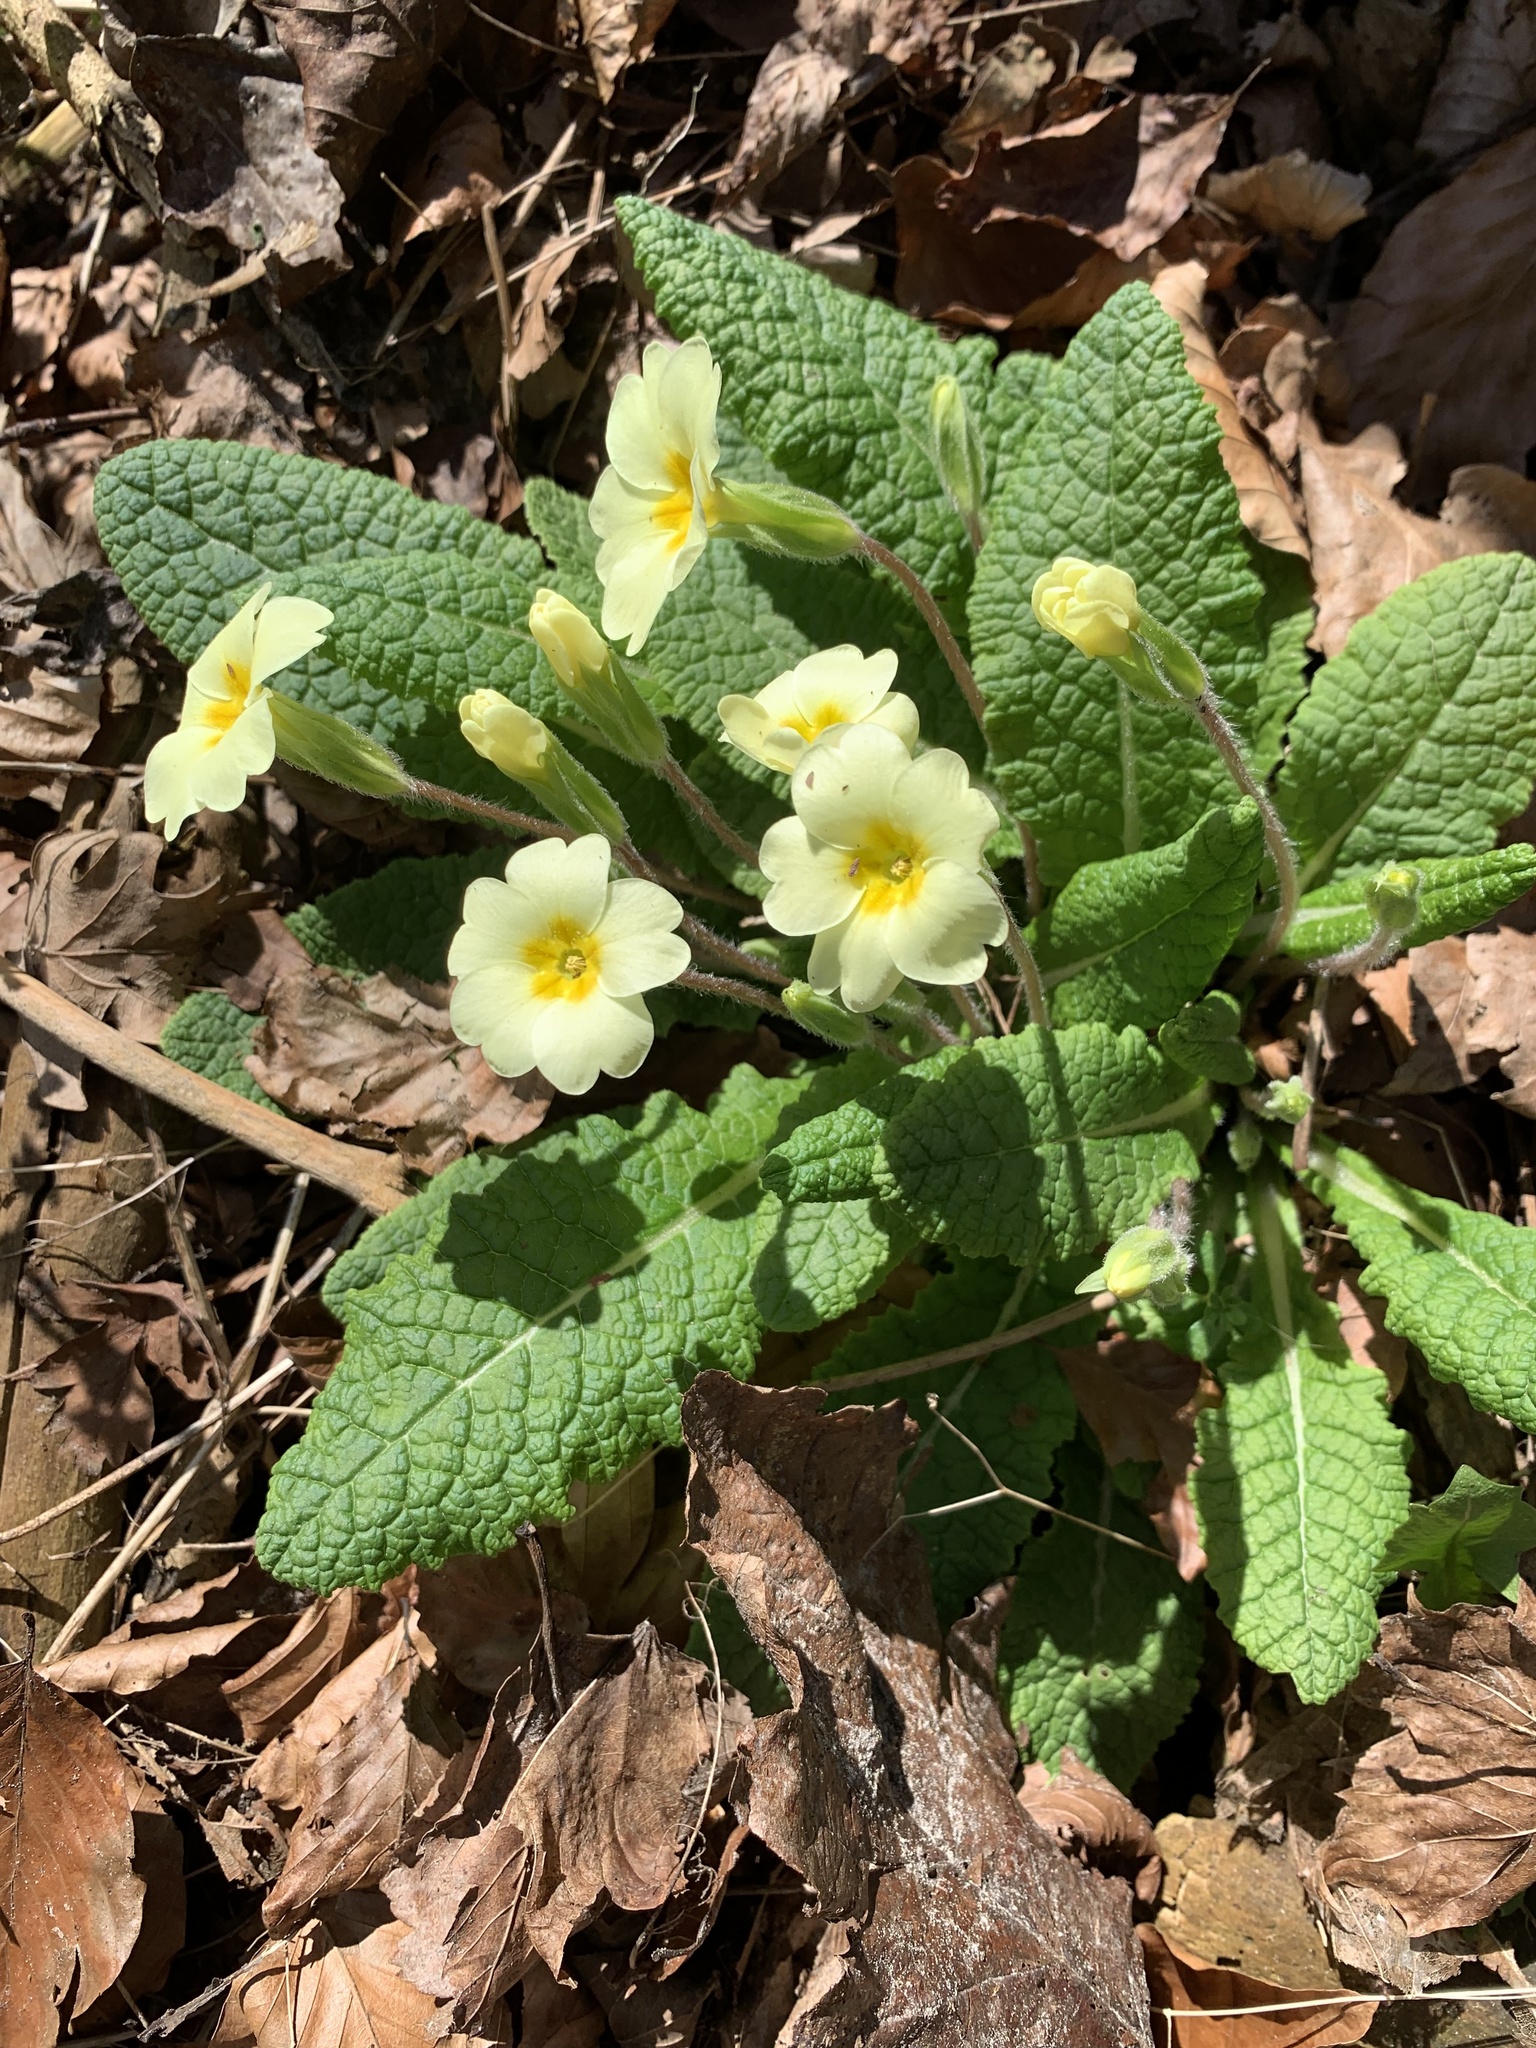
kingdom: Plantae
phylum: Tracheophyta
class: Magnoliopsida
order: Ericales
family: Primulaceae
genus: Primula
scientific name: Primula vulgaris
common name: Primrose
